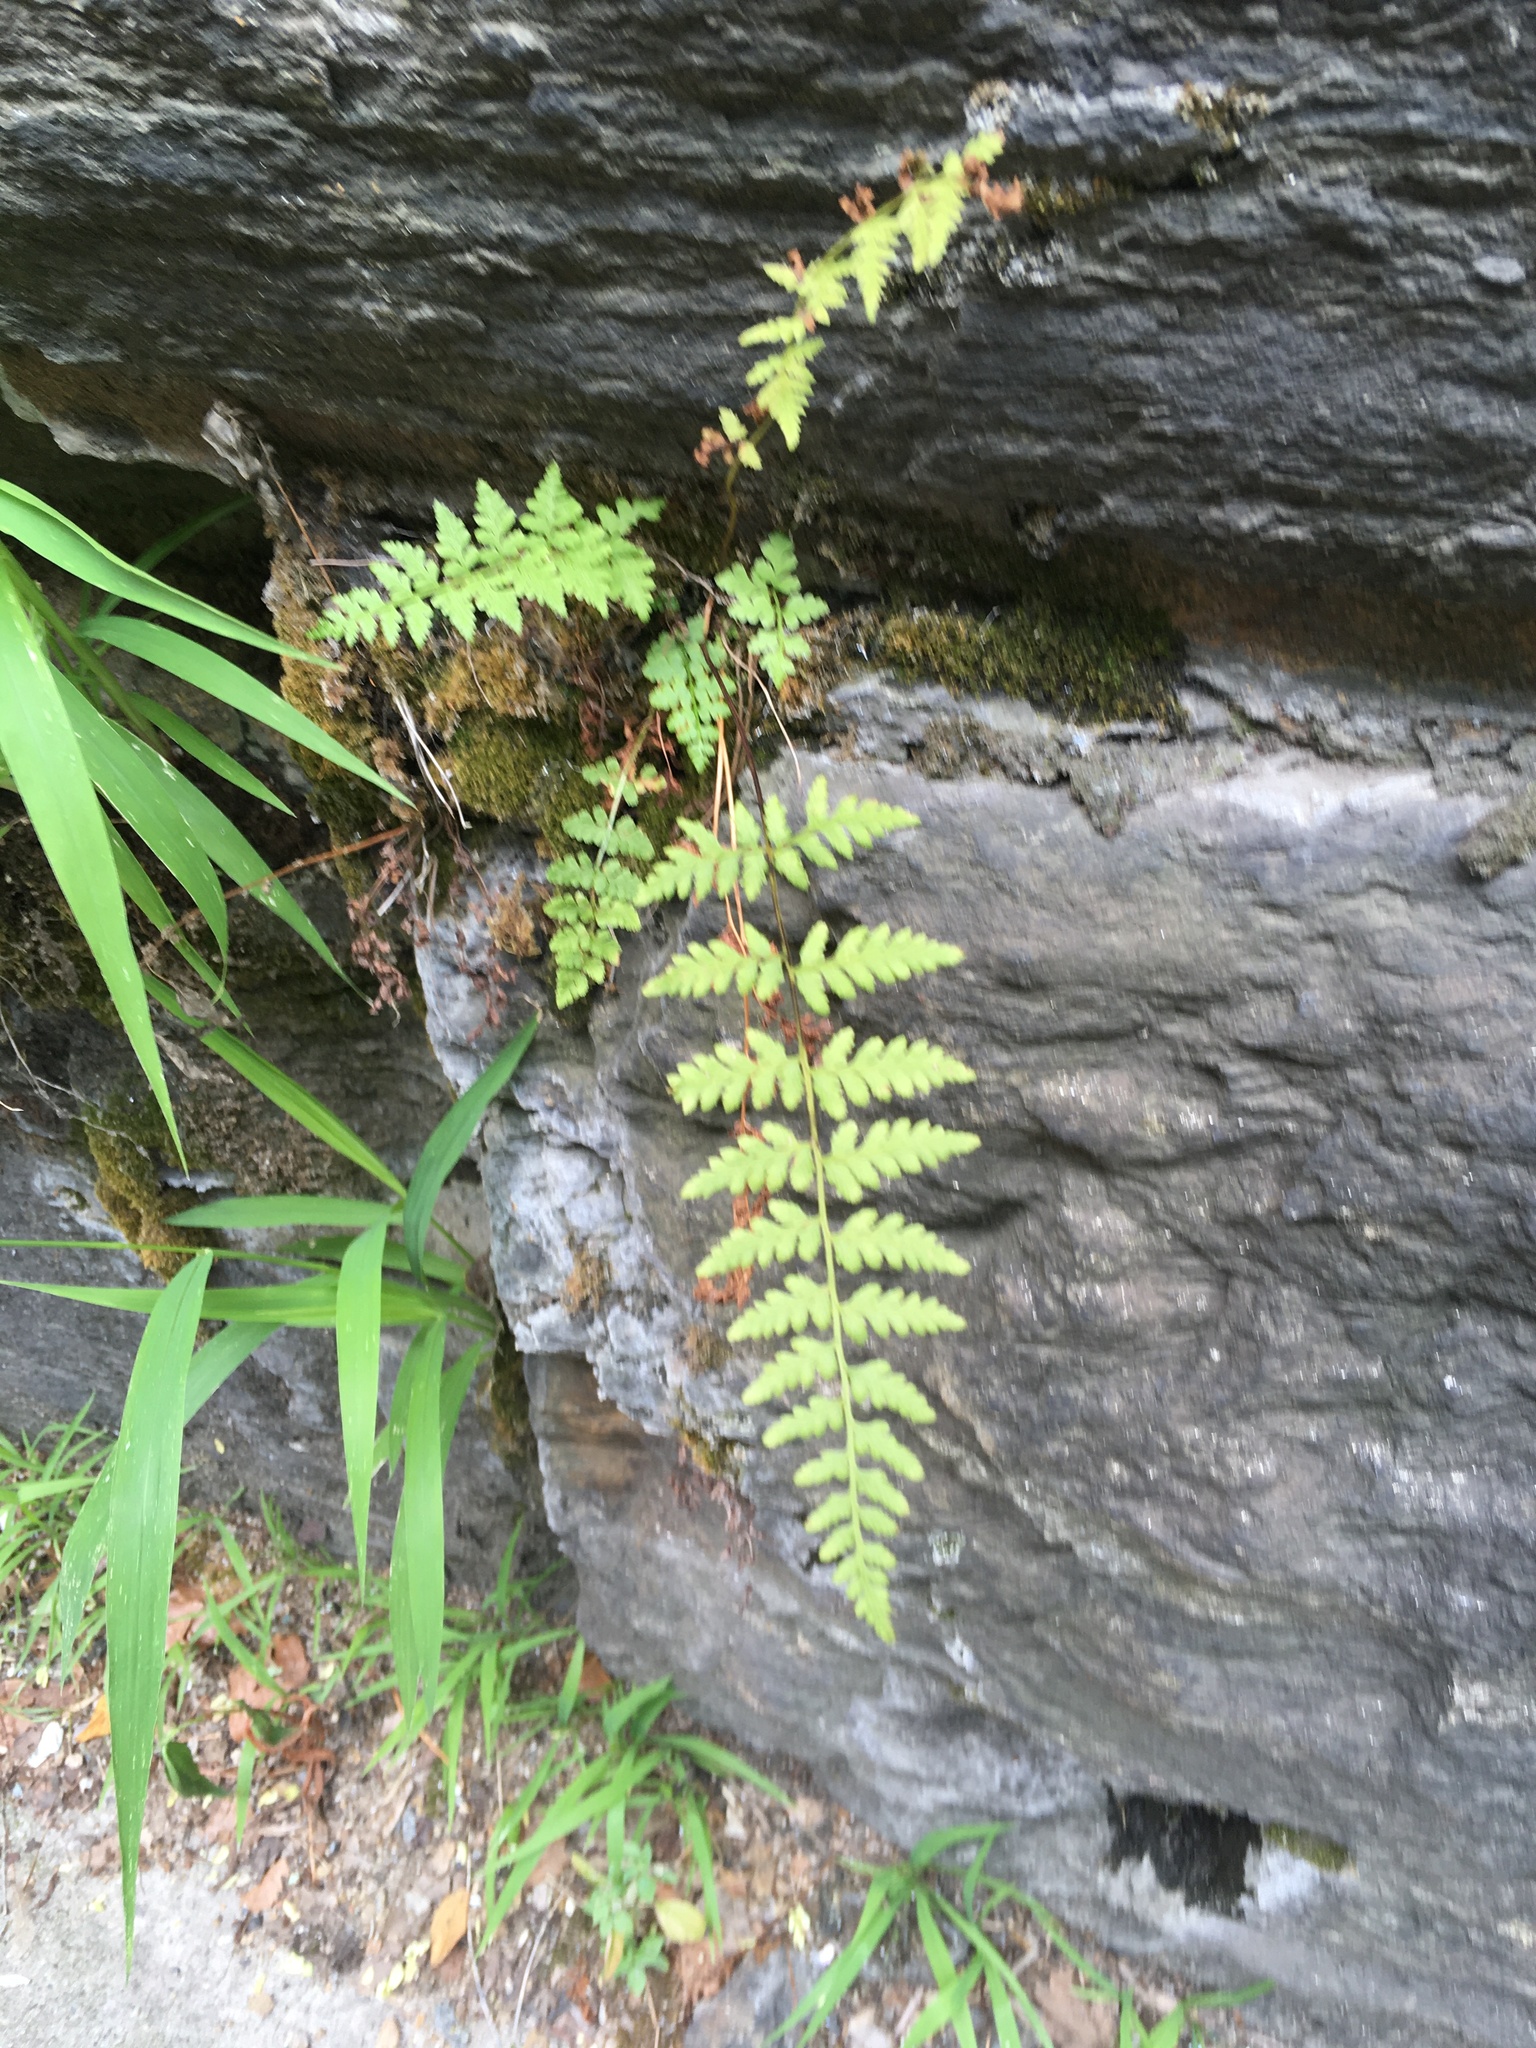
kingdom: Plantae
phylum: Tracheophyta
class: Polypodiopsida
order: Polypodiales
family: Woodsiaceae
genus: Physematium
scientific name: Physematium obtusum
